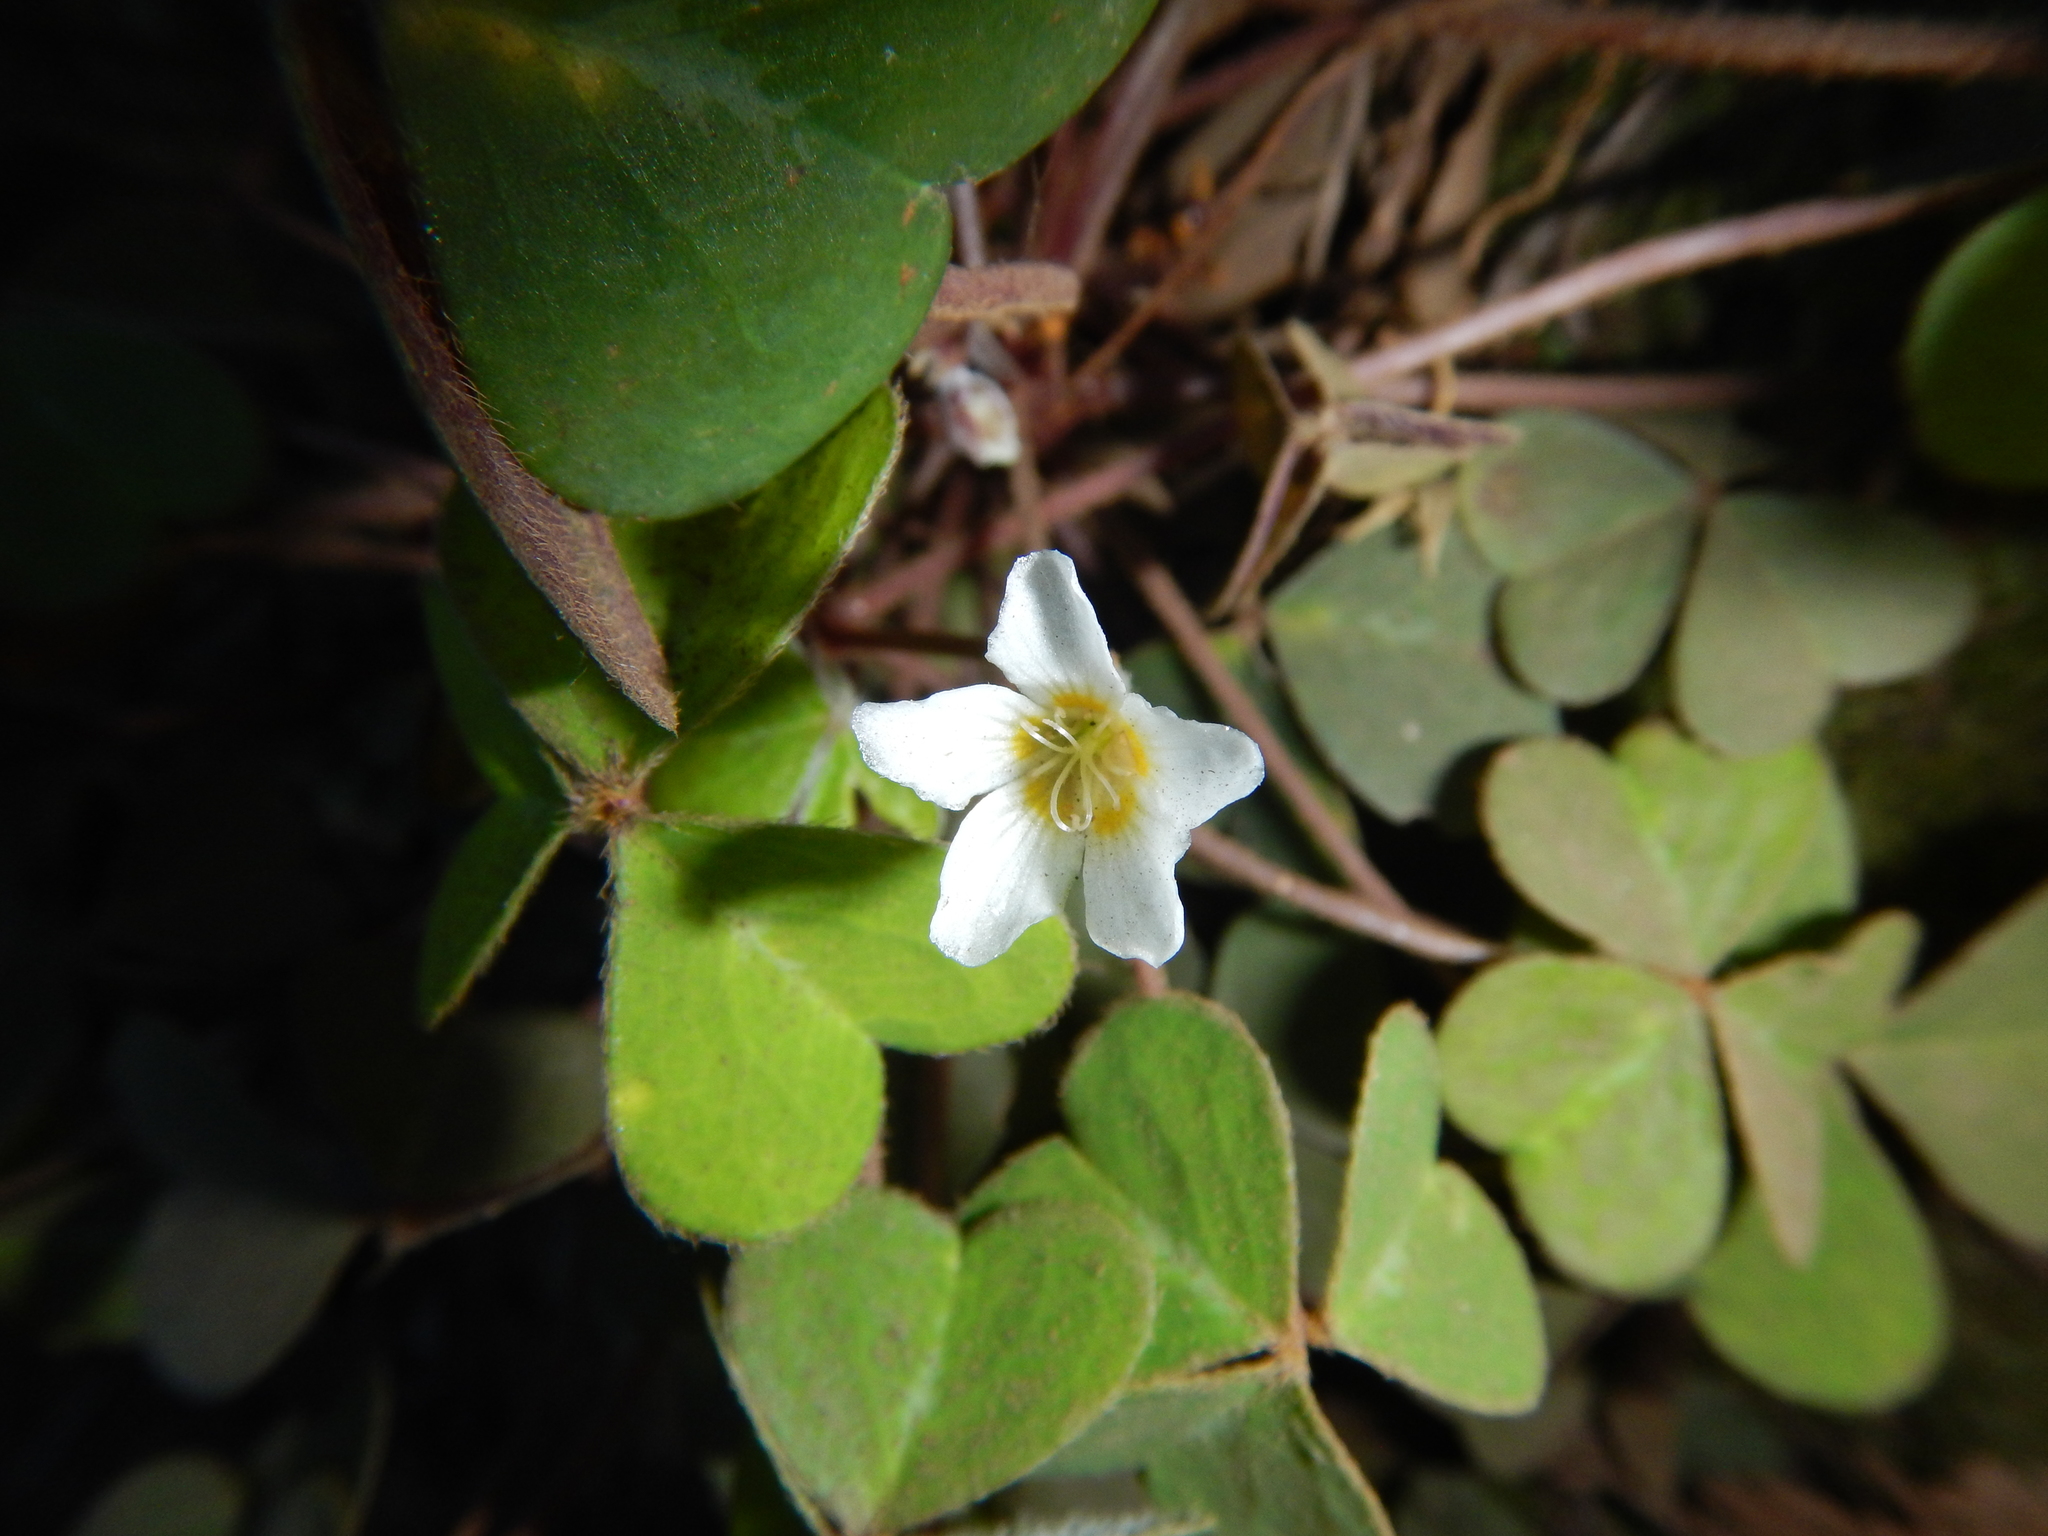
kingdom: Plantae
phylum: Tracheophyta
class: Magnoliopsida
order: Oxalidales
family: Oxalidaceae
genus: Oxalis
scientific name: Oxalis oregana
